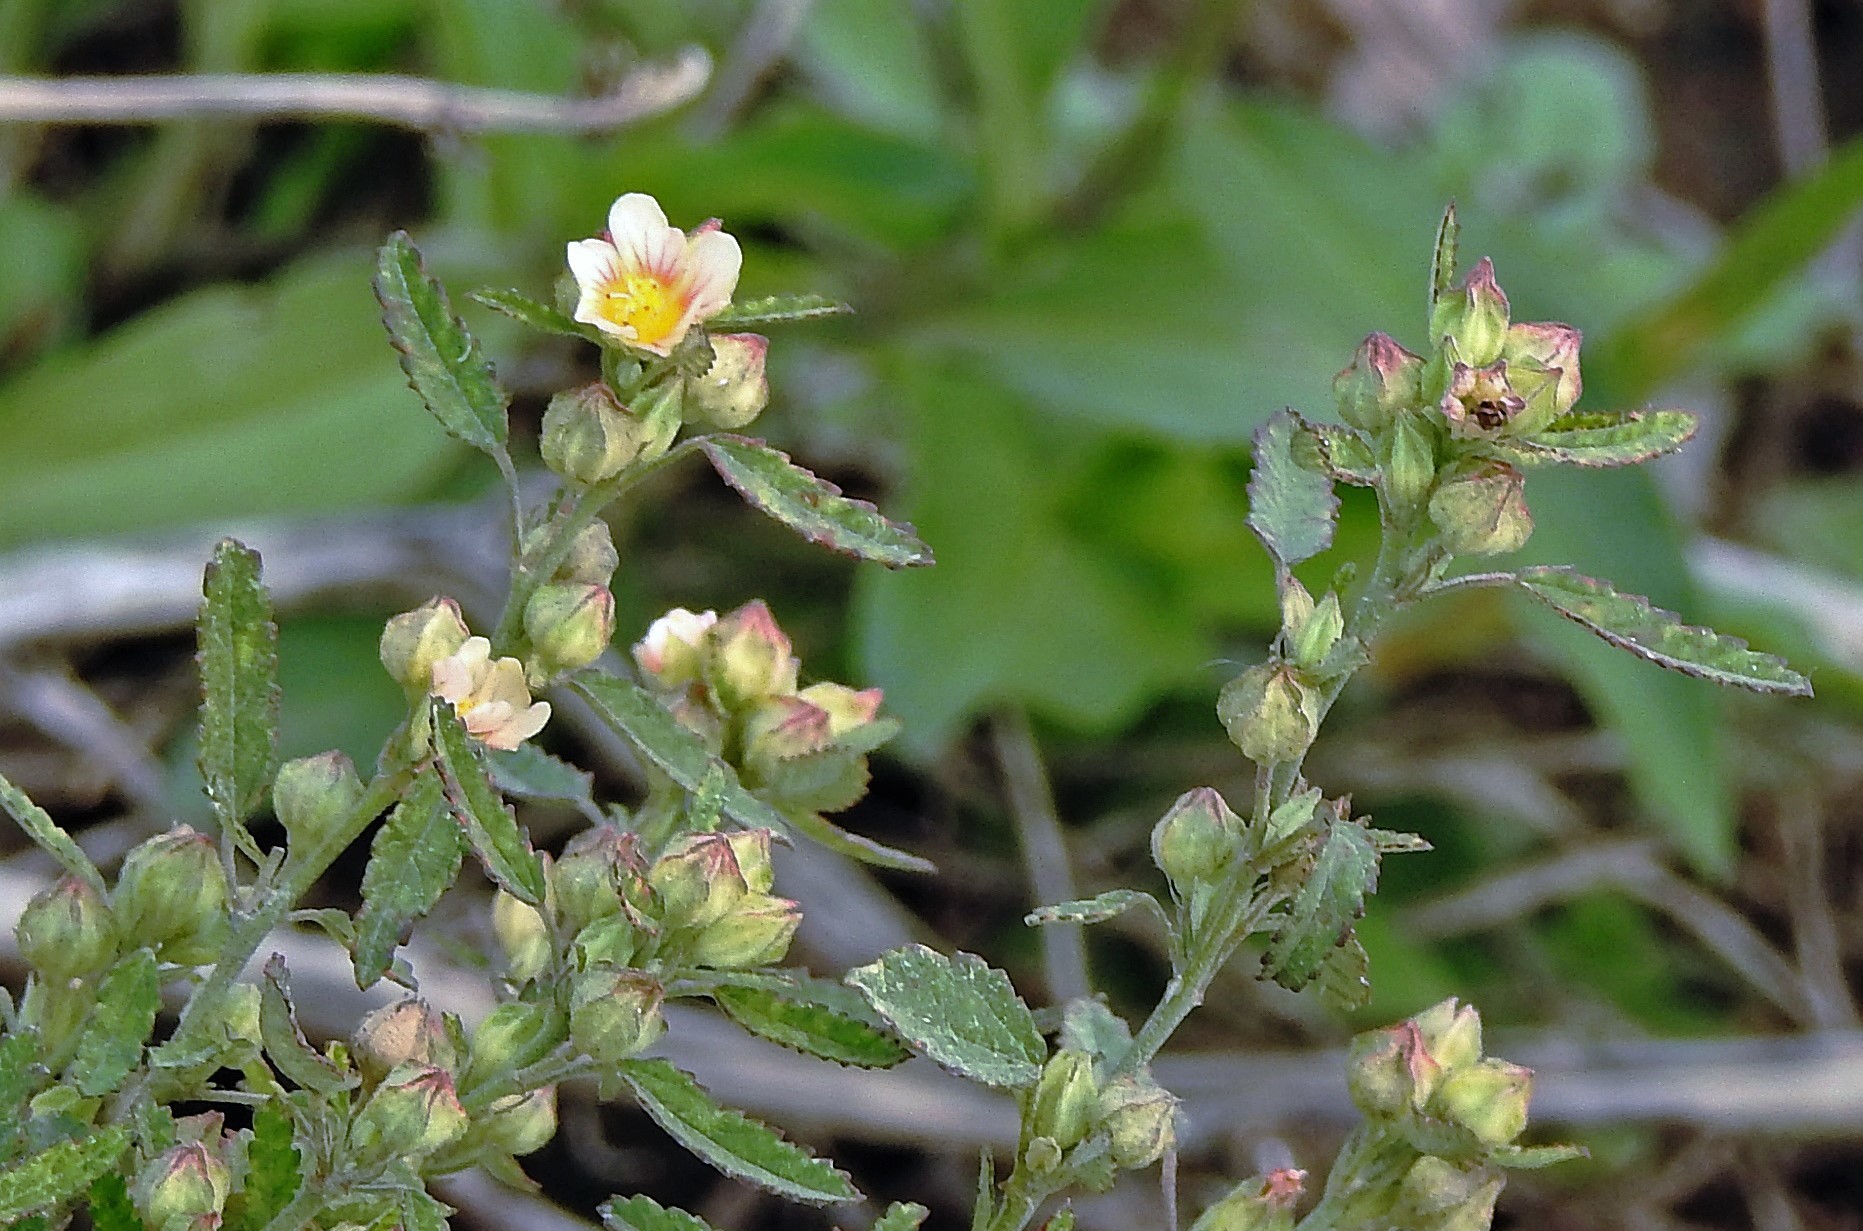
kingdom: Plantae
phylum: Tracheophyta
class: Magnoliopsida
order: Malvales
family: Malvaceae
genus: Sida
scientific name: Sida rhombifolia
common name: Queensland-hemp
